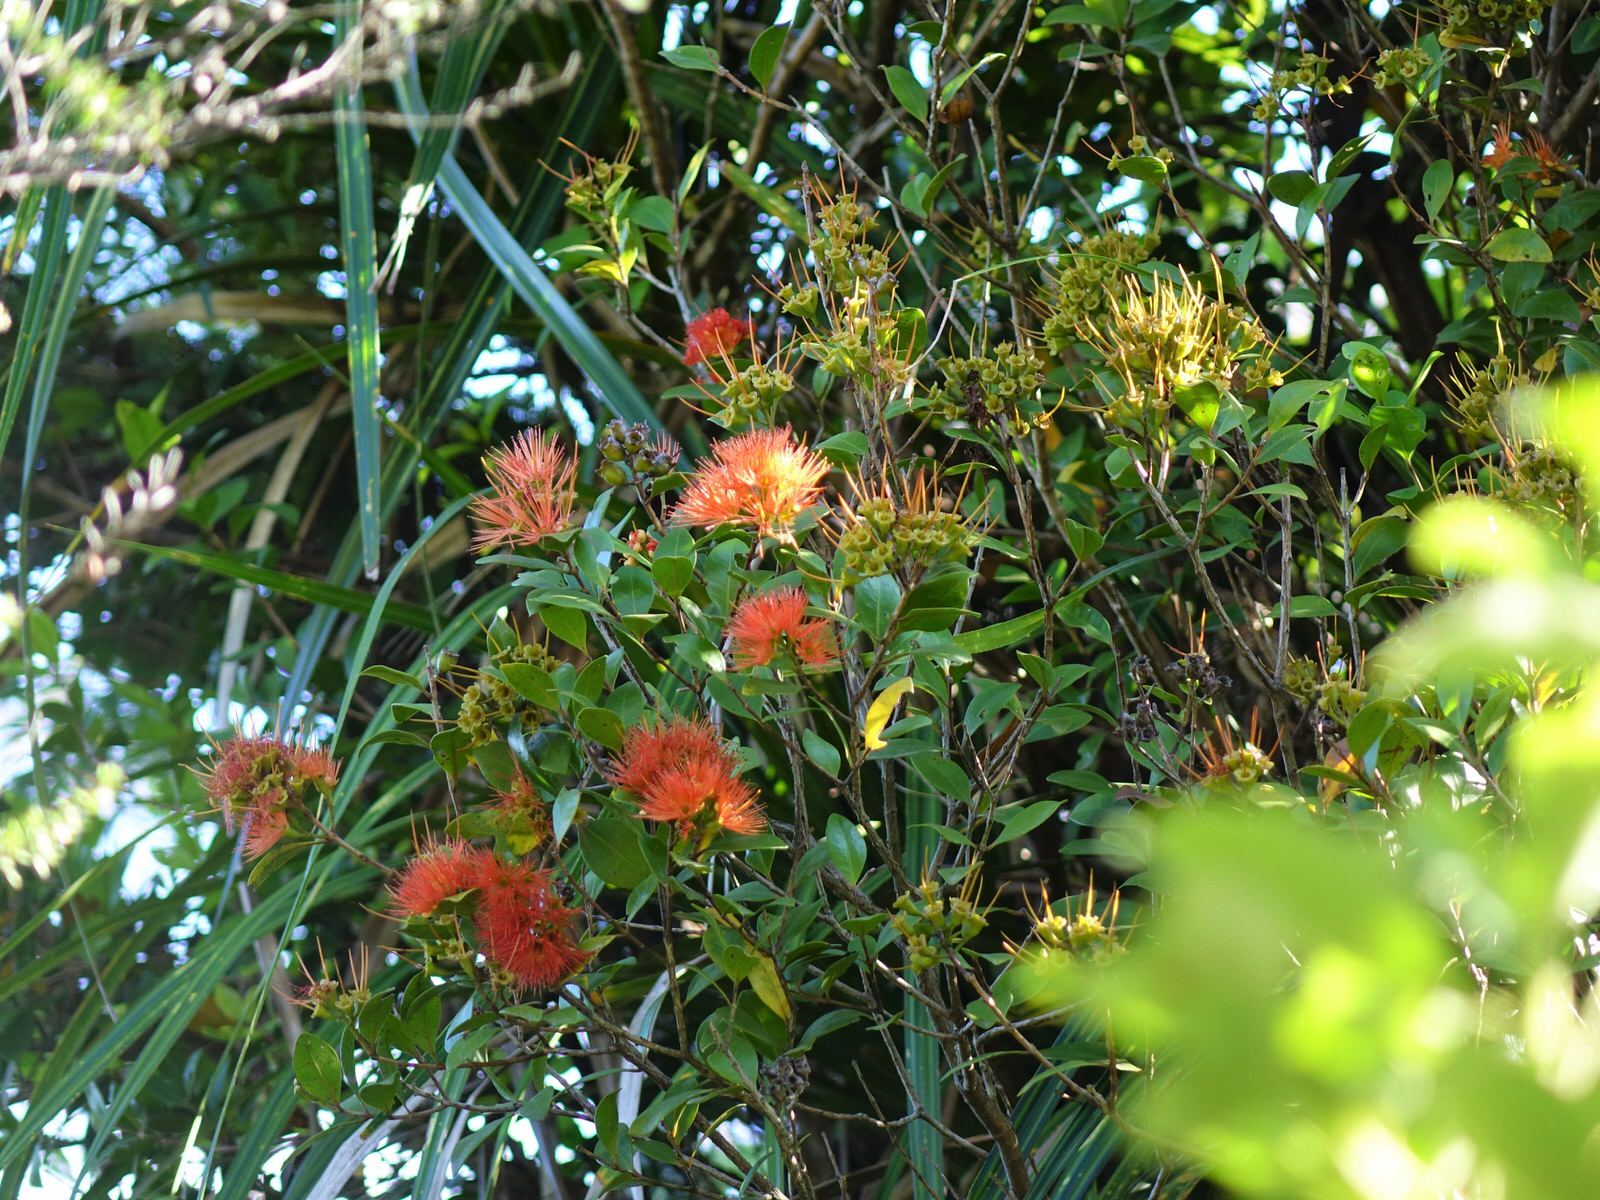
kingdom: Plantae
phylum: Tracheophyta
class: Magnoliopsida
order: Myrtales
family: Myrtaceae
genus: Metrosideros
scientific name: Metrosideros fulgens
